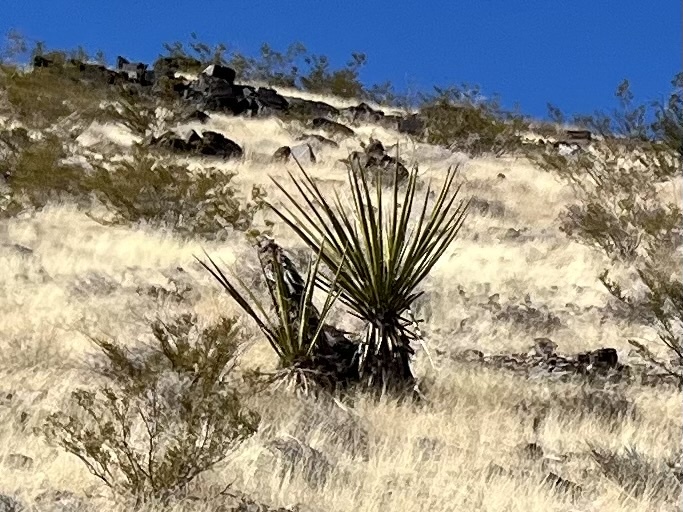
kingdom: Plantae
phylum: Tracheophyta
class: Liliopsida
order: Asparagales
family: Asparagaceae
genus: Yucca
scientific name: Yucca schidigera
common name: Mojave yucca
